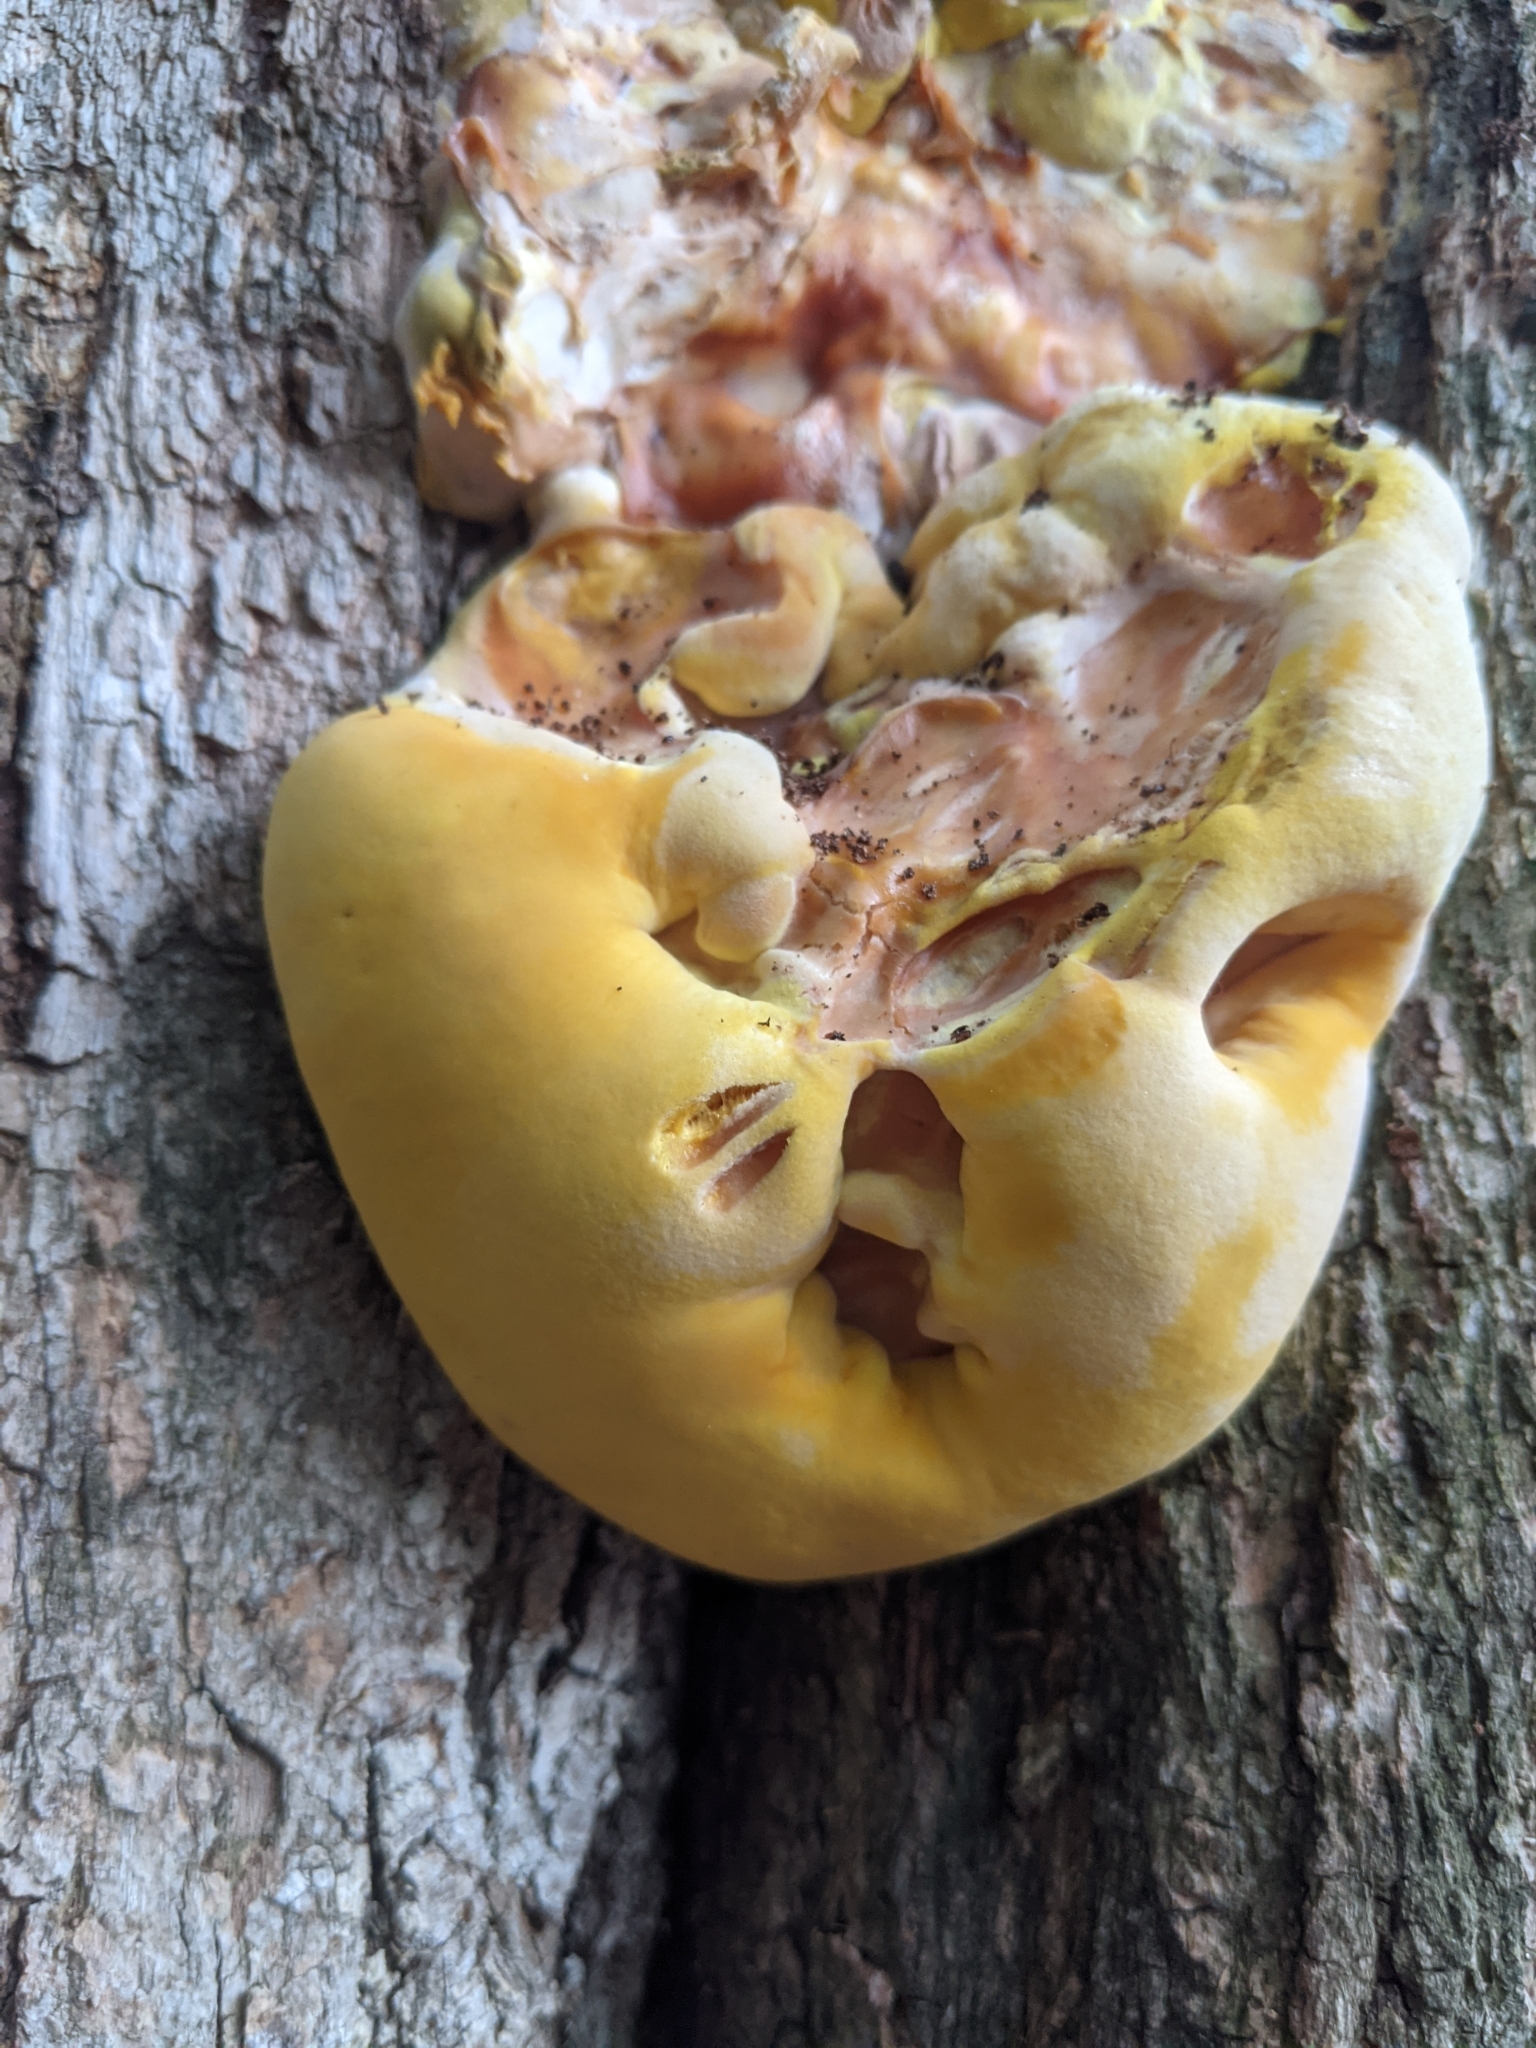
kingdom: Fungi
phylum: Basidiomycota
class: Agaricomycetes
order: Polyporales
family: Laetiporaceae
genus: Laetiporus
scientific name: Laetiporus sulphureus
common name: Chicken of the woods
